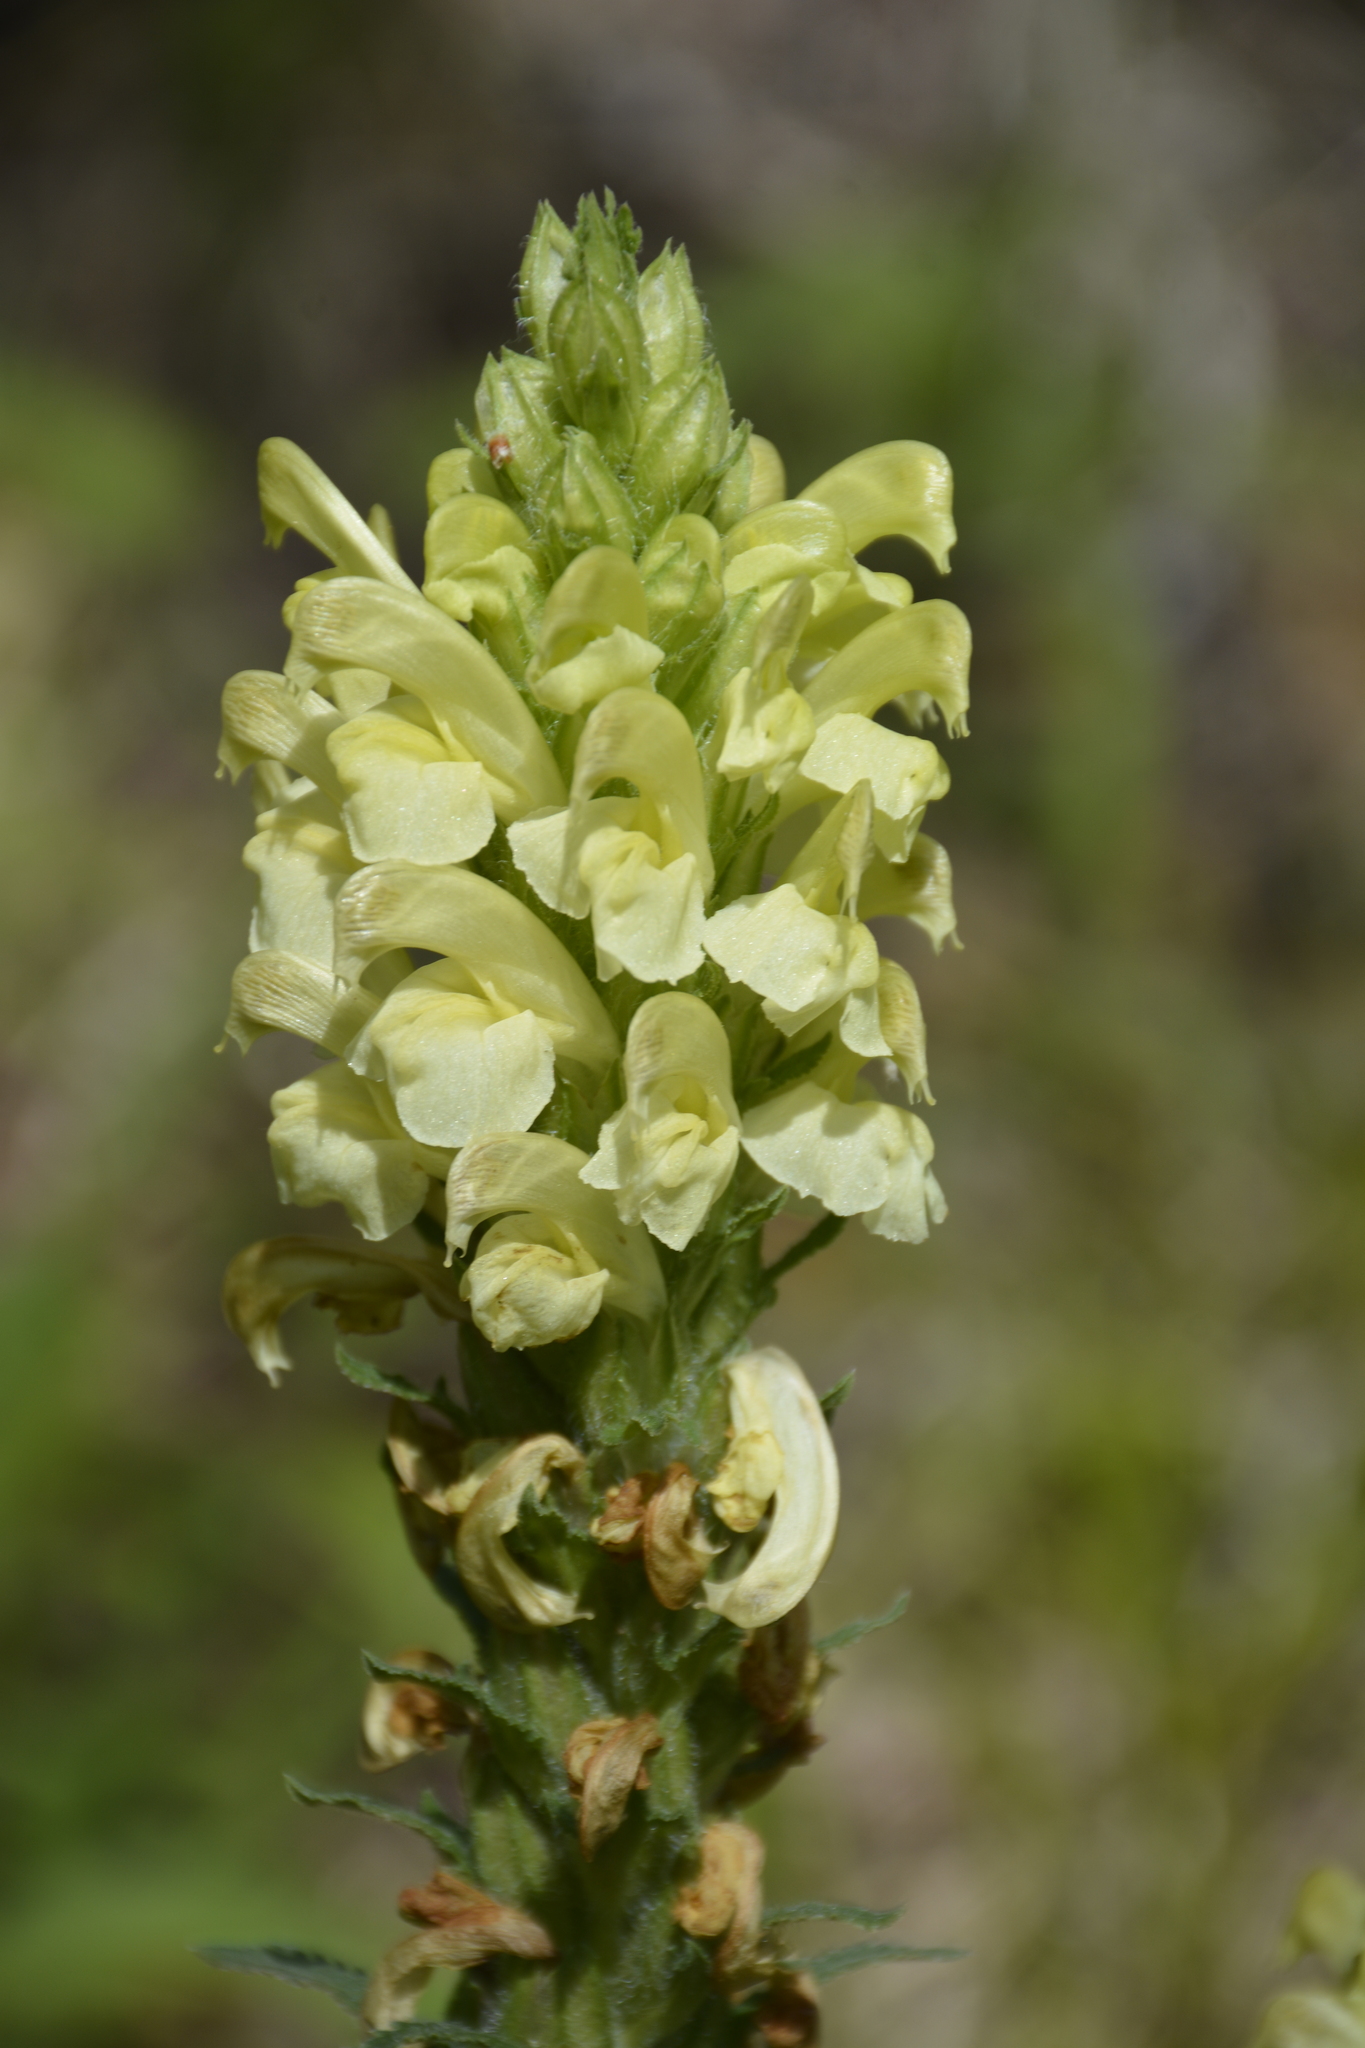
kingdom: Plantae
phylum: Tracheophyta
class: Magnoliopsida
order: Lamiales
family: Orobanchaceae
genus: Pedicularis
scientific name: Pedicularis kaufmannii
